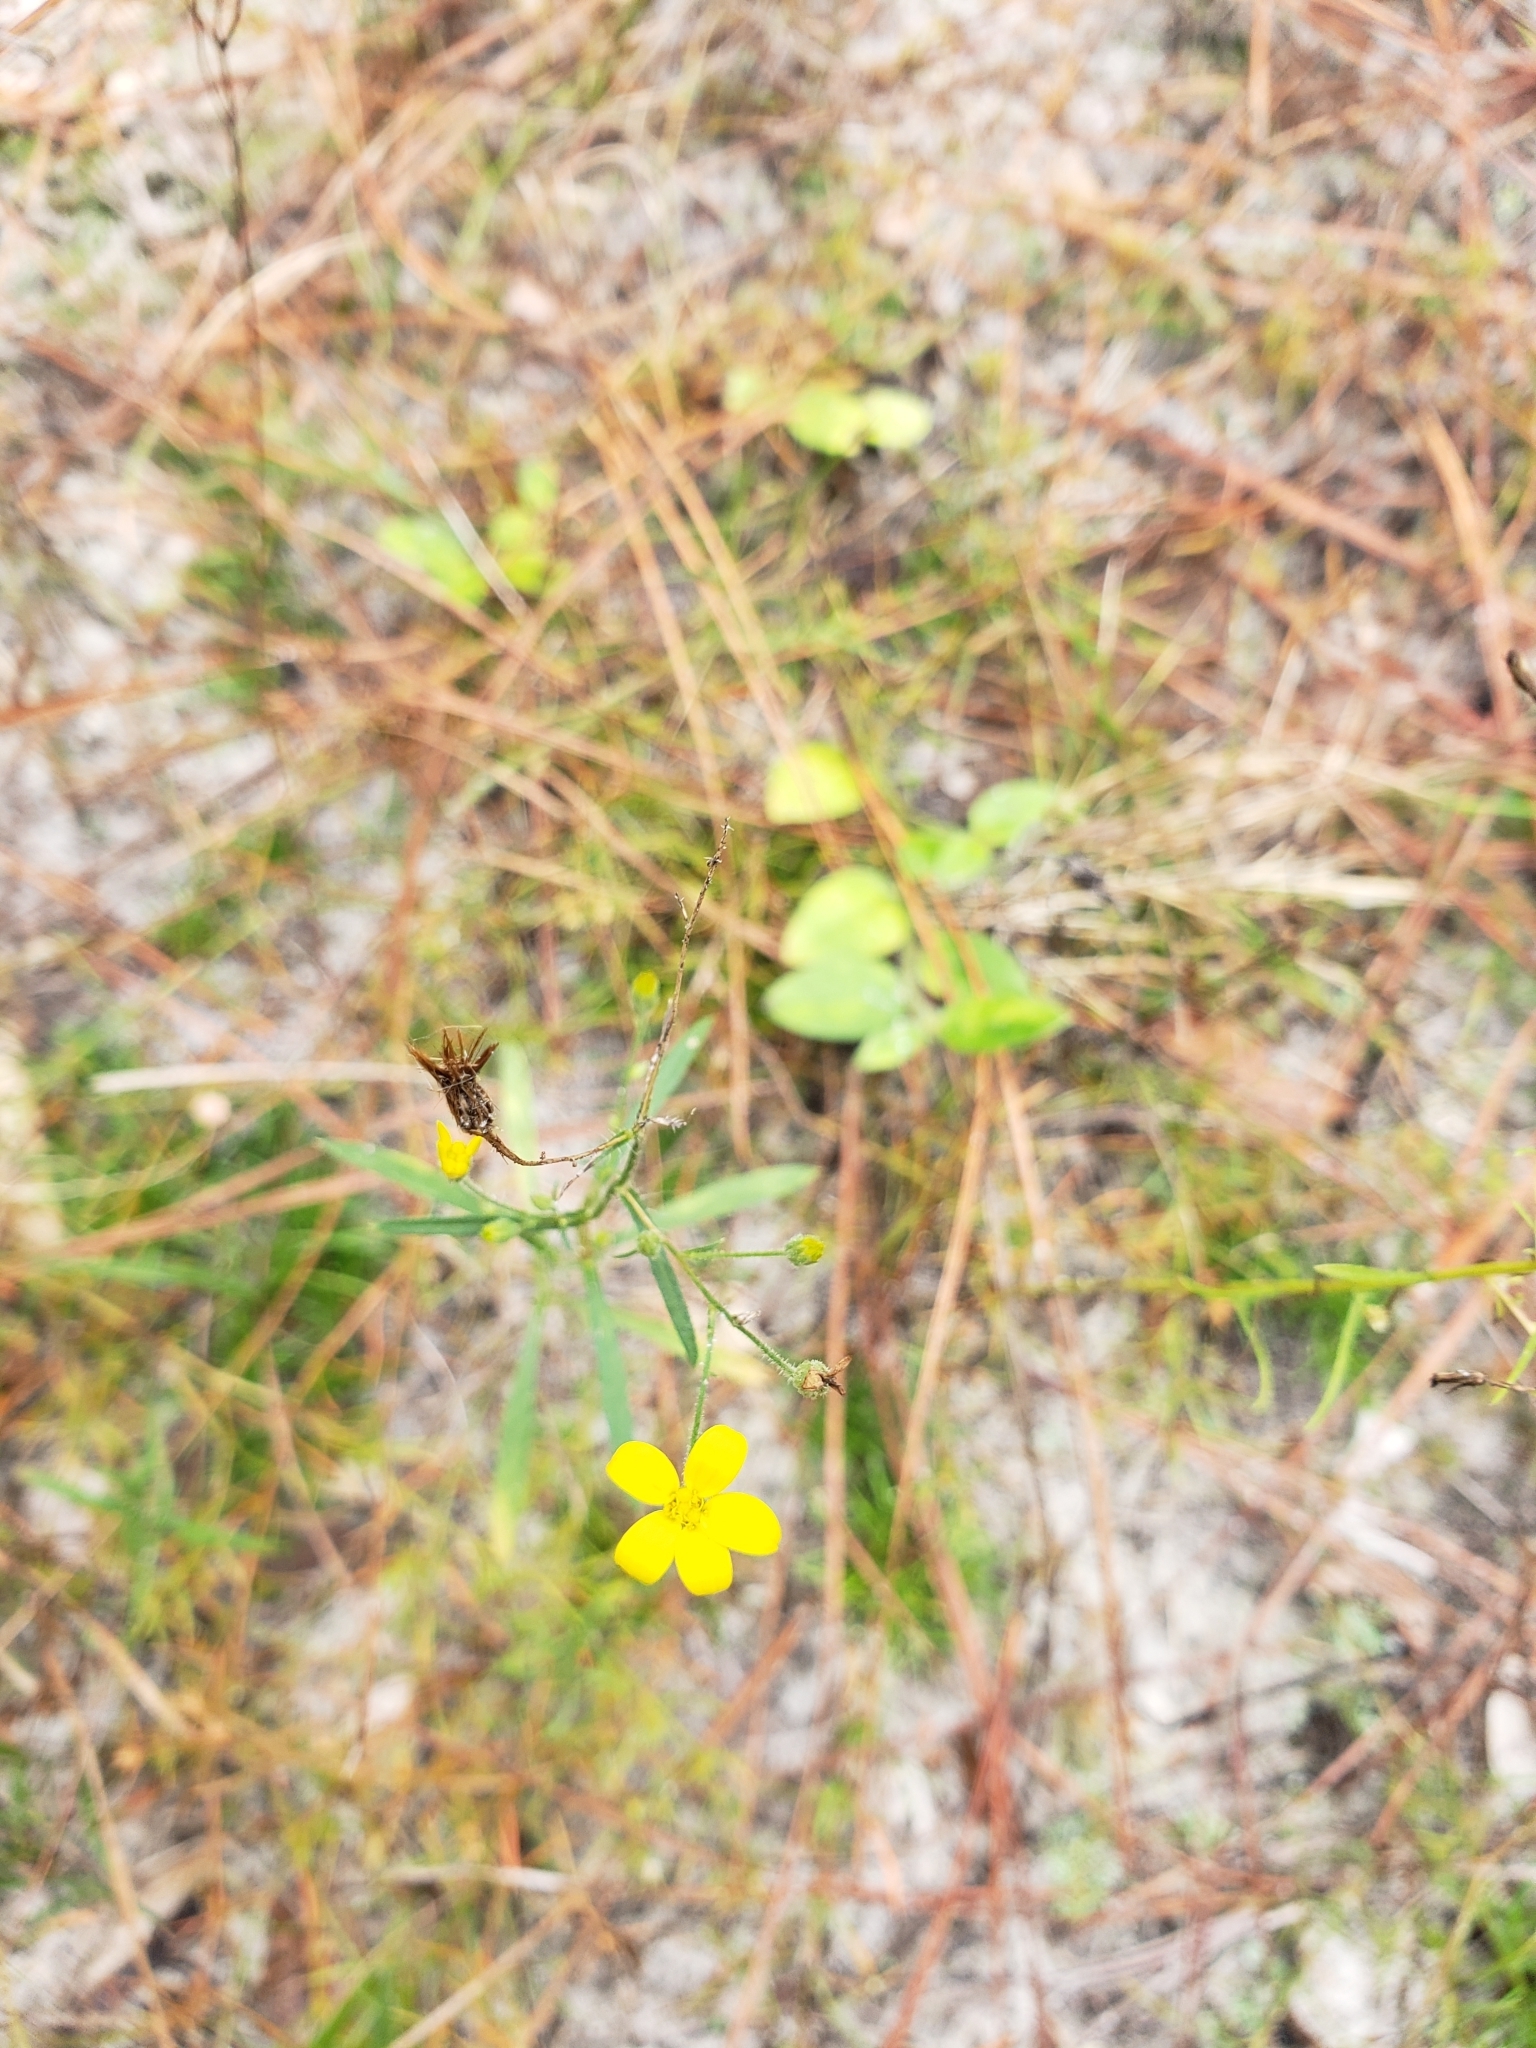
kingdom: Plantae
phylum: Tracheophyta
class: Magnoliopsida
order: Asterales
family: Asteraceae
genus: Croptilon
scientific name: Croptilon divaricatum
